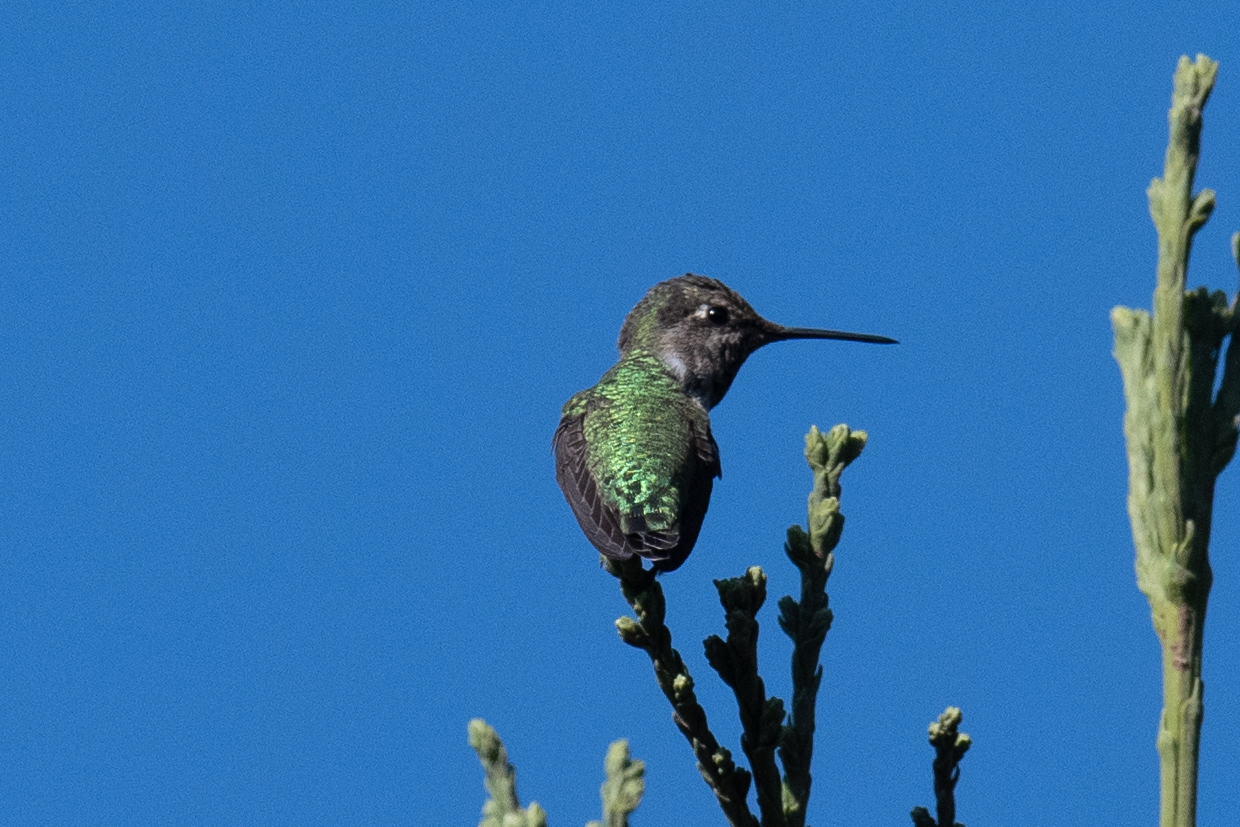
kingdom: Animalia
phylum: Chordata
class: Aves
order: Apodiformes
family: Trochilidae
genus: Calypte
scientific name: Calypte anna
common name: Anna's hummingbird
